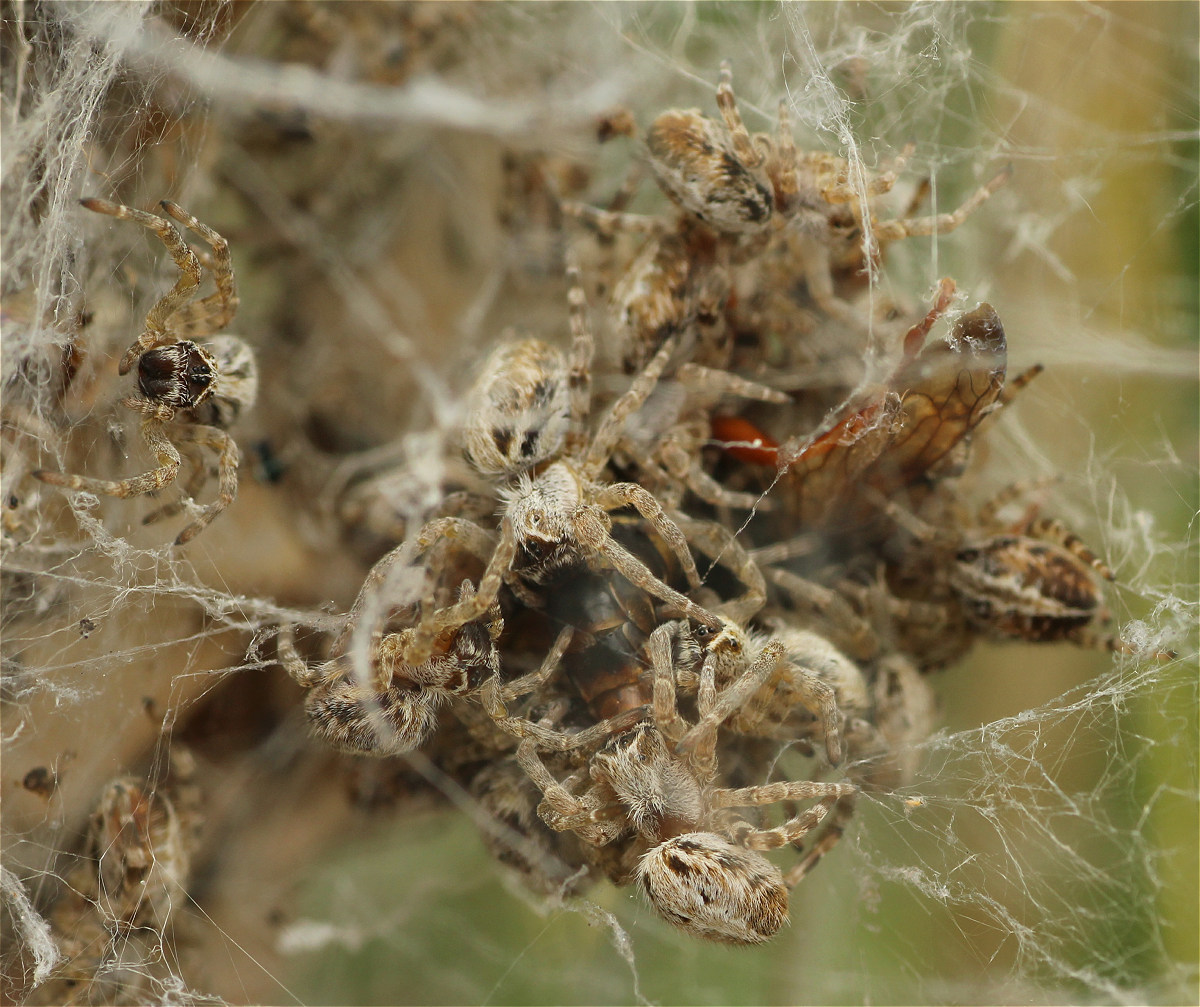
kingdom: Animalia
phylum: Arthropoda
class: Arachnida
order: Araneae
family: Eresidae
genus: Stegodyphus
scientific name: Stegodyphus dumicola
